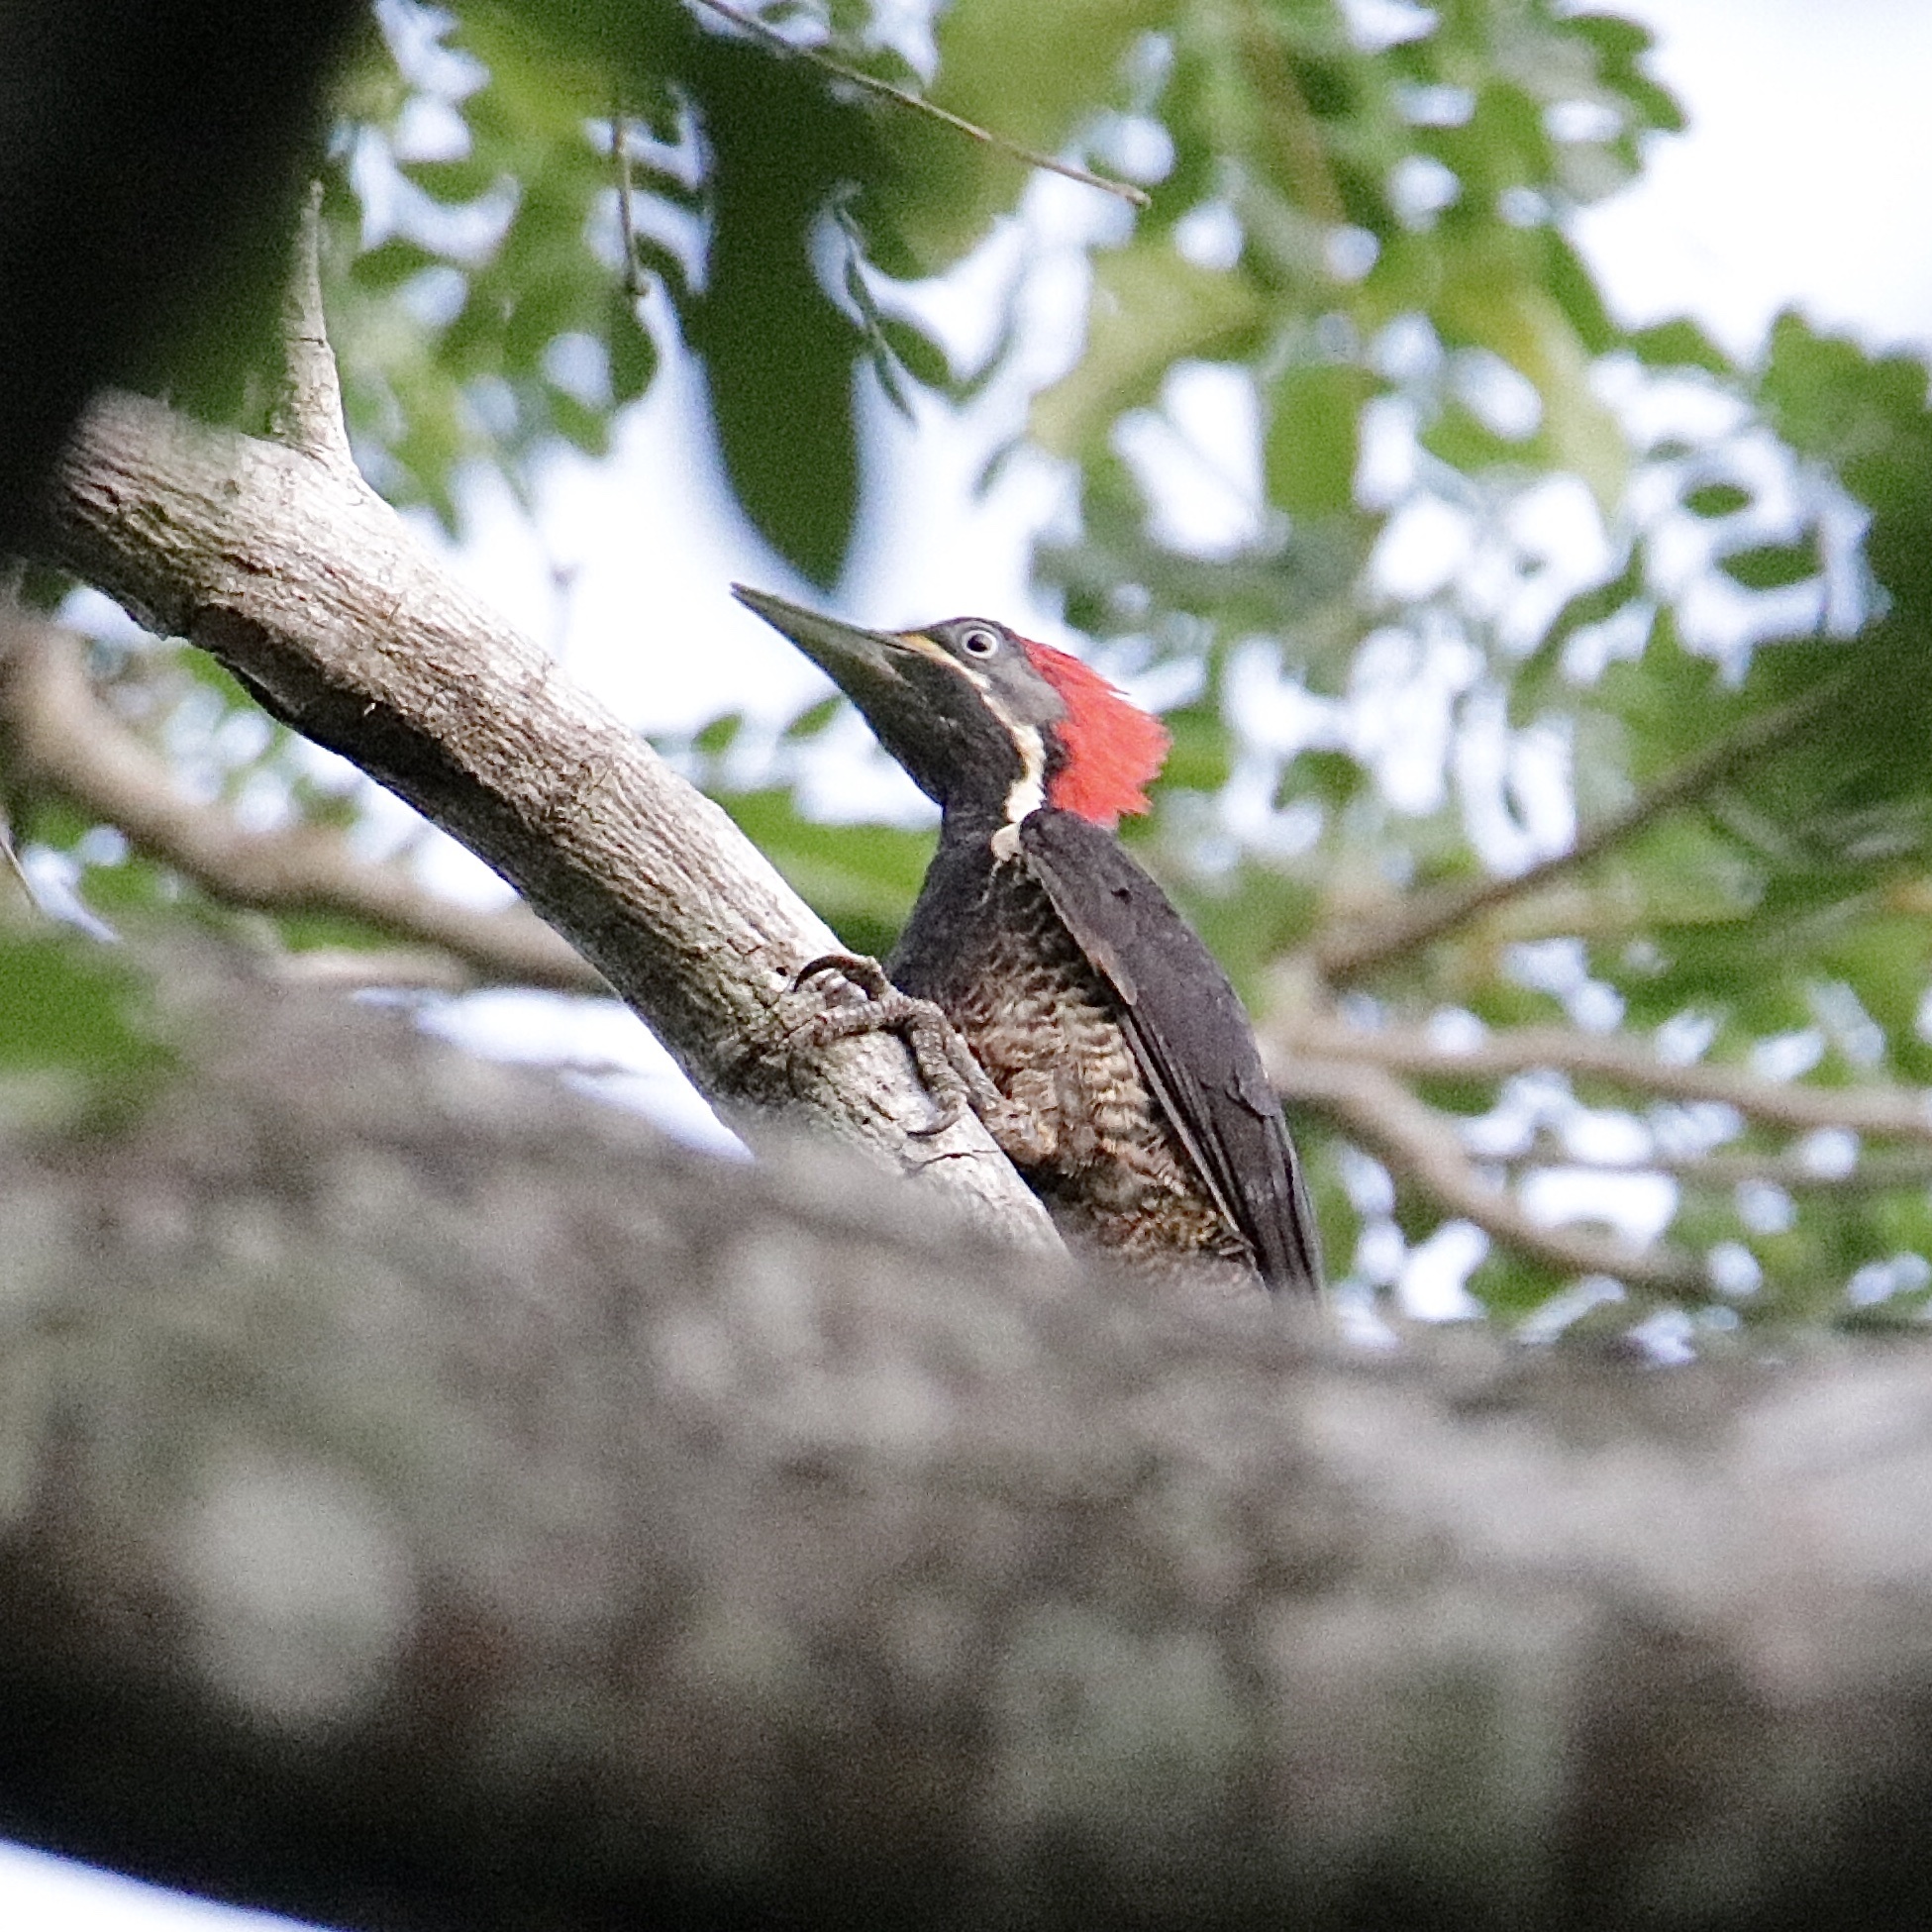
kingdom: Animalia
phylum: Chordata
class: Aves
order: Piciformes
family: Picidae
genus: Dryocopus
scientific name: Dryocopus lineatus
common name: Lineated woodpecker
